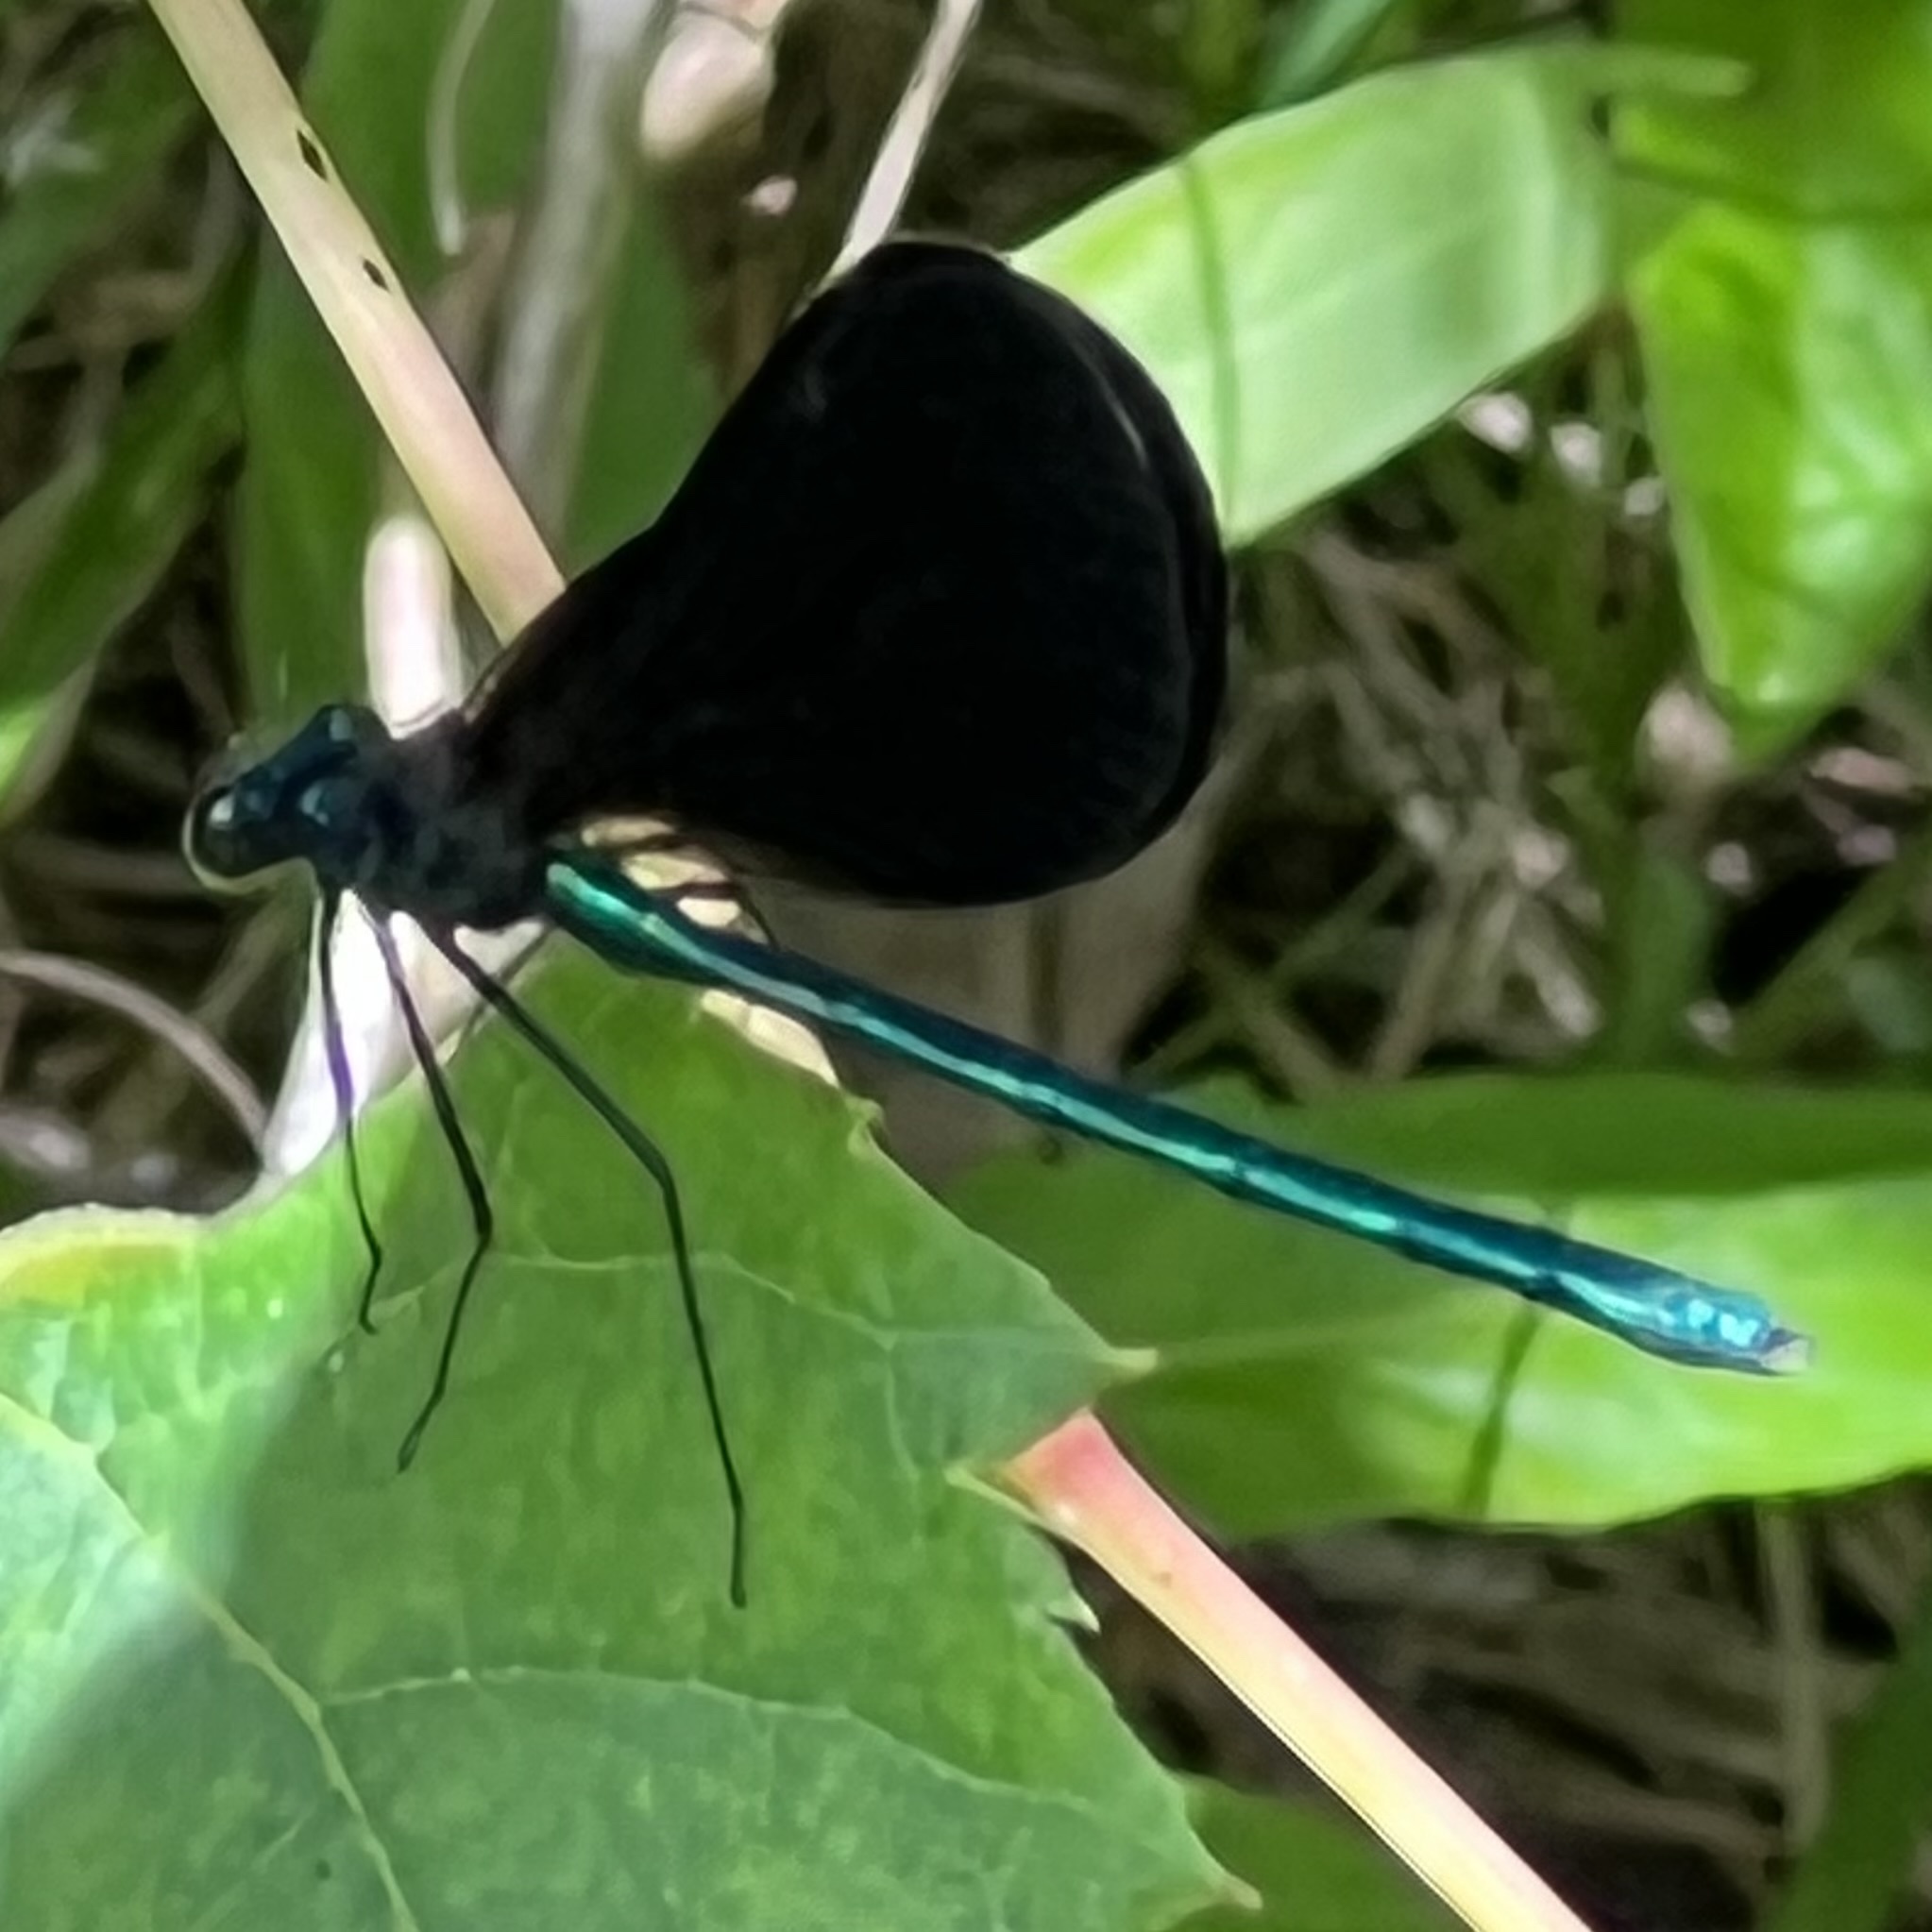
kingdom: Animalia
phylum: Arthropoda
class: Insecta
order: Odonata
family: Calopterygidae
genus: Calopteryx
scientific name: Calopteryx maculata
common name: Ebony jewelwing
